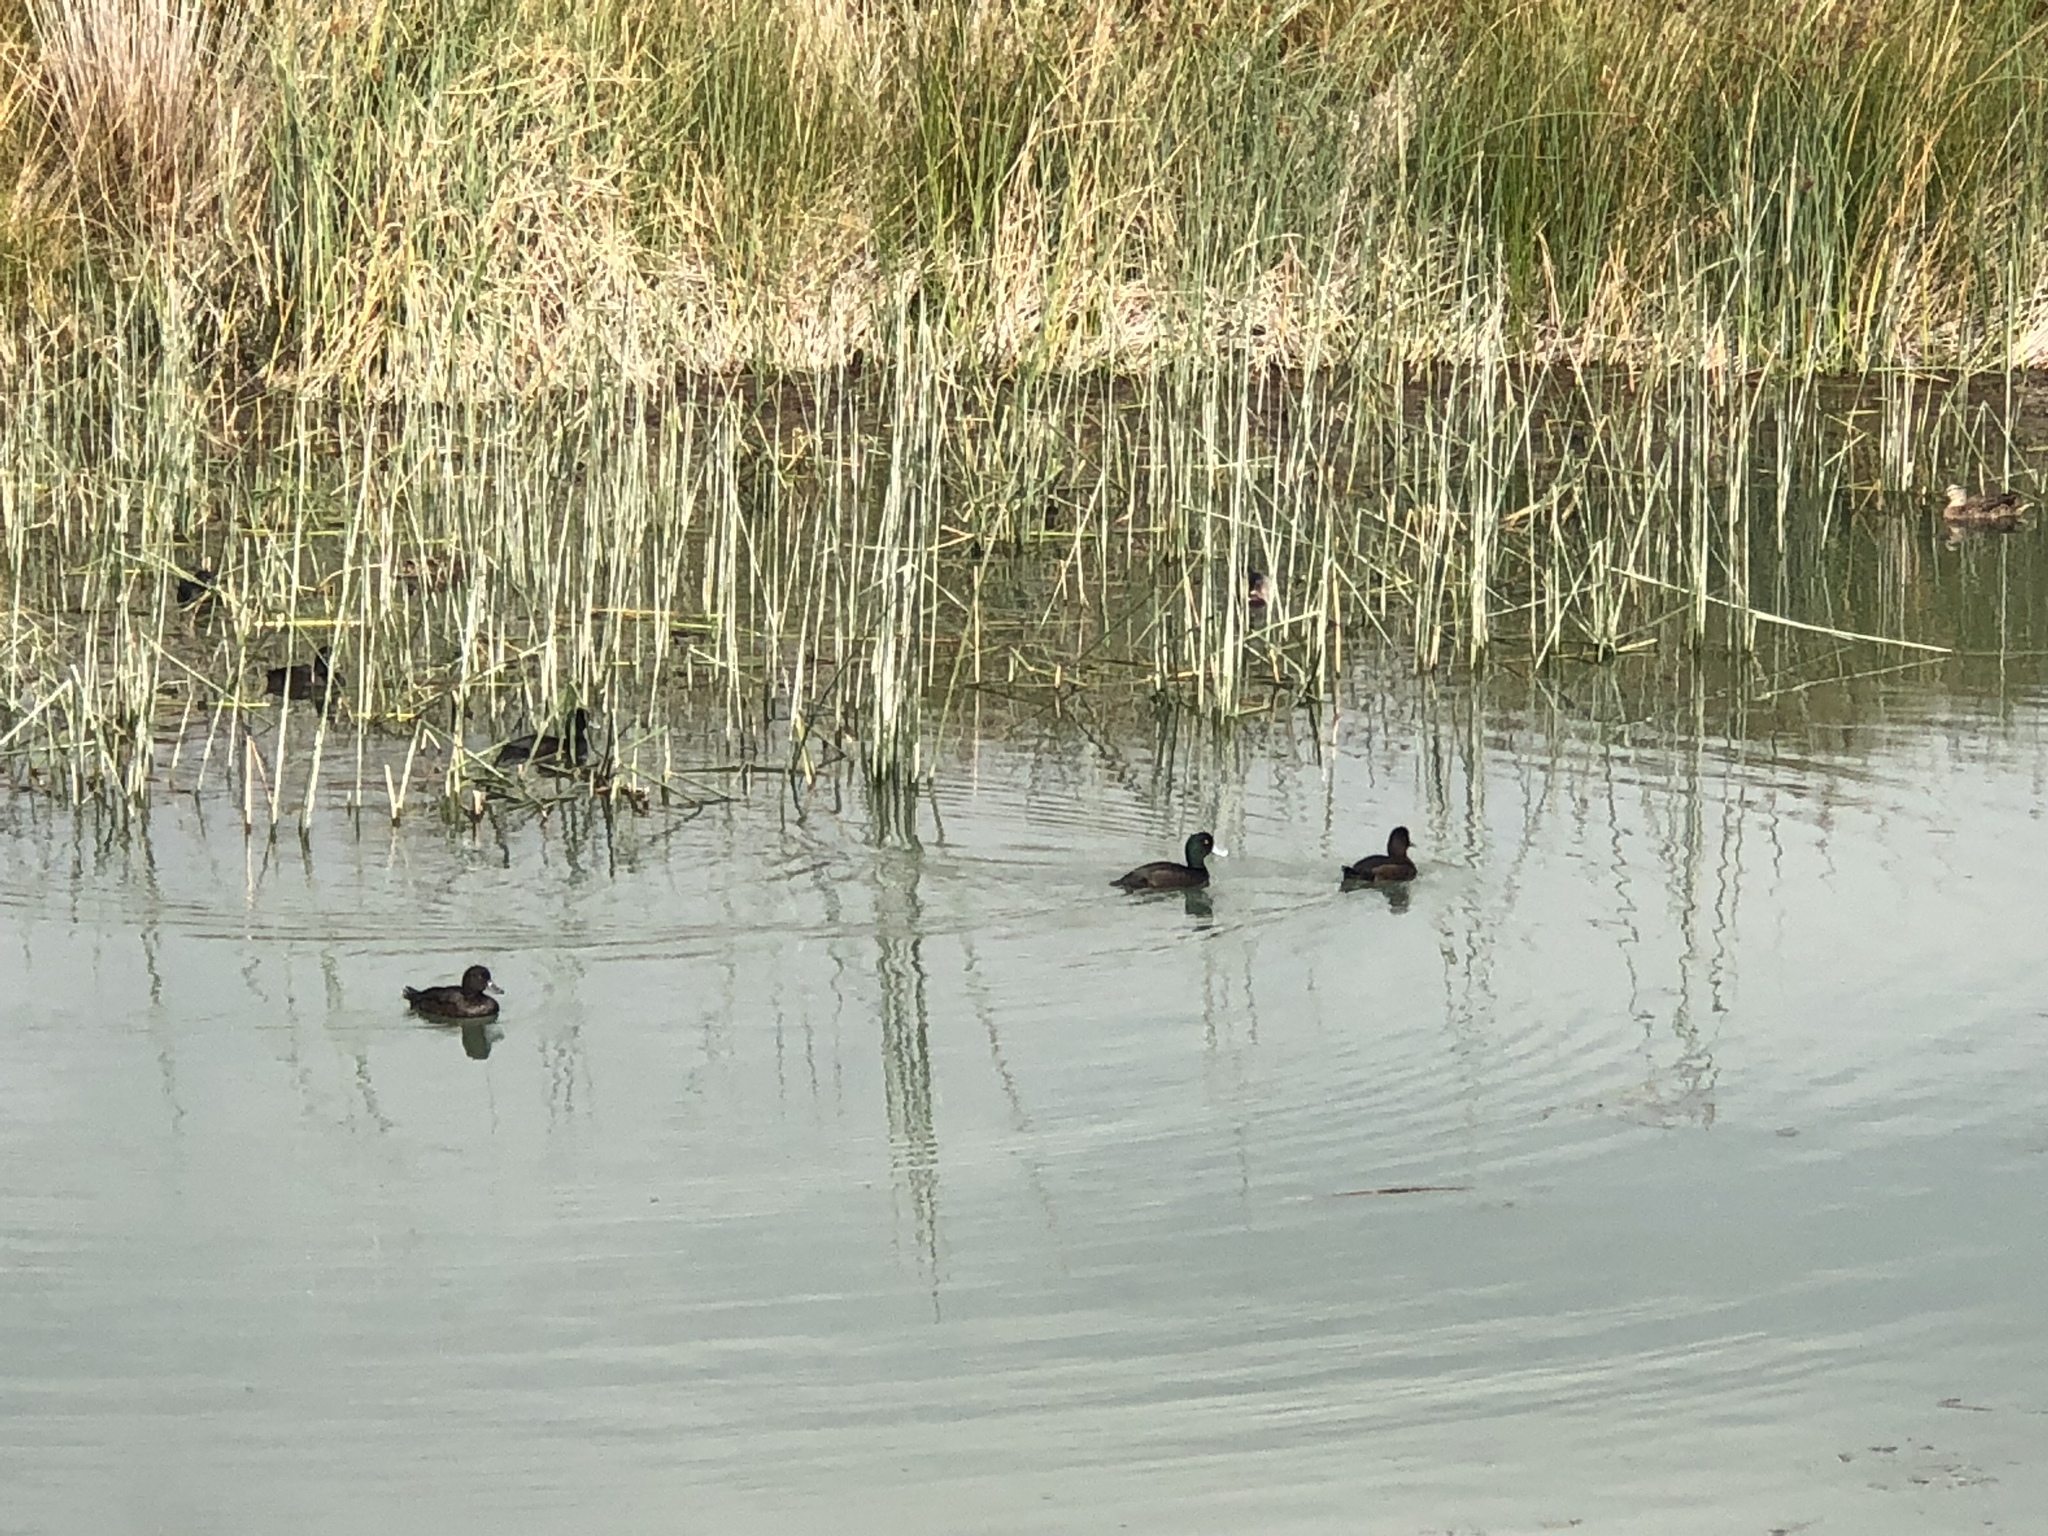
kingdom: Animalia
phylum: Chordata
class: Aves
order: Anseriformes
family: Anatidae
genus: Aythya
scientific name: Aythya novaeseelandiae
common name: New zealand scaup
